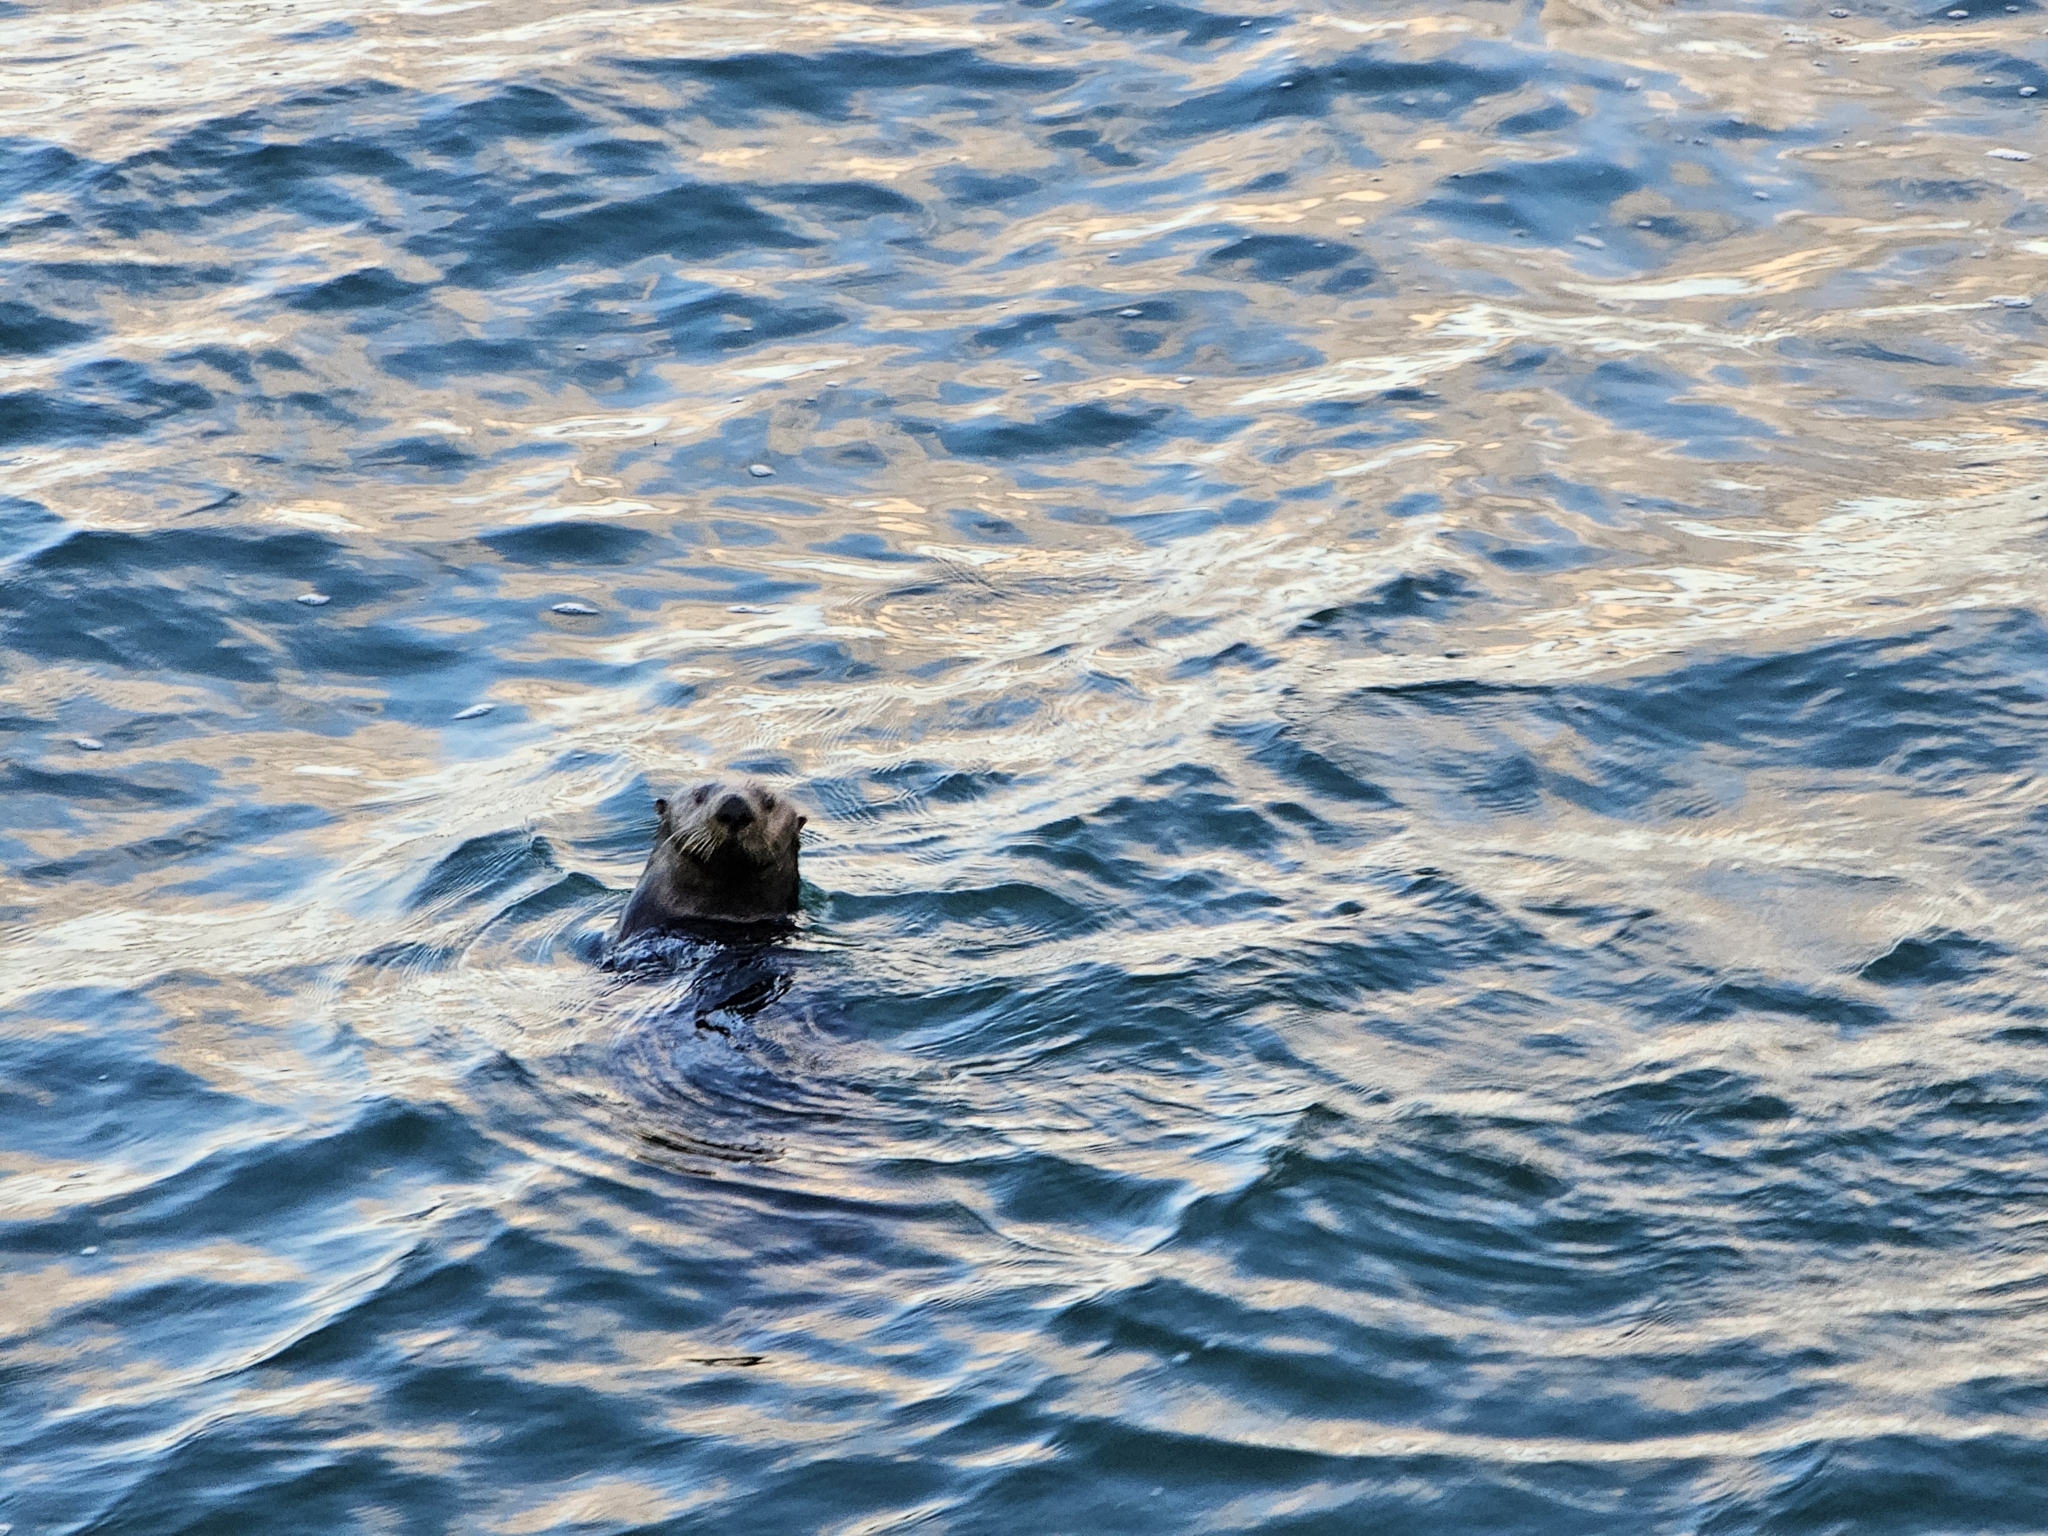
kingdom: Animalia
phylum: Chordata
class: Mammalia
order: Carnivora
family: Mustelidae
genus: Enhydra
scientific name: Enhydra lutris
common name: Sea otter
